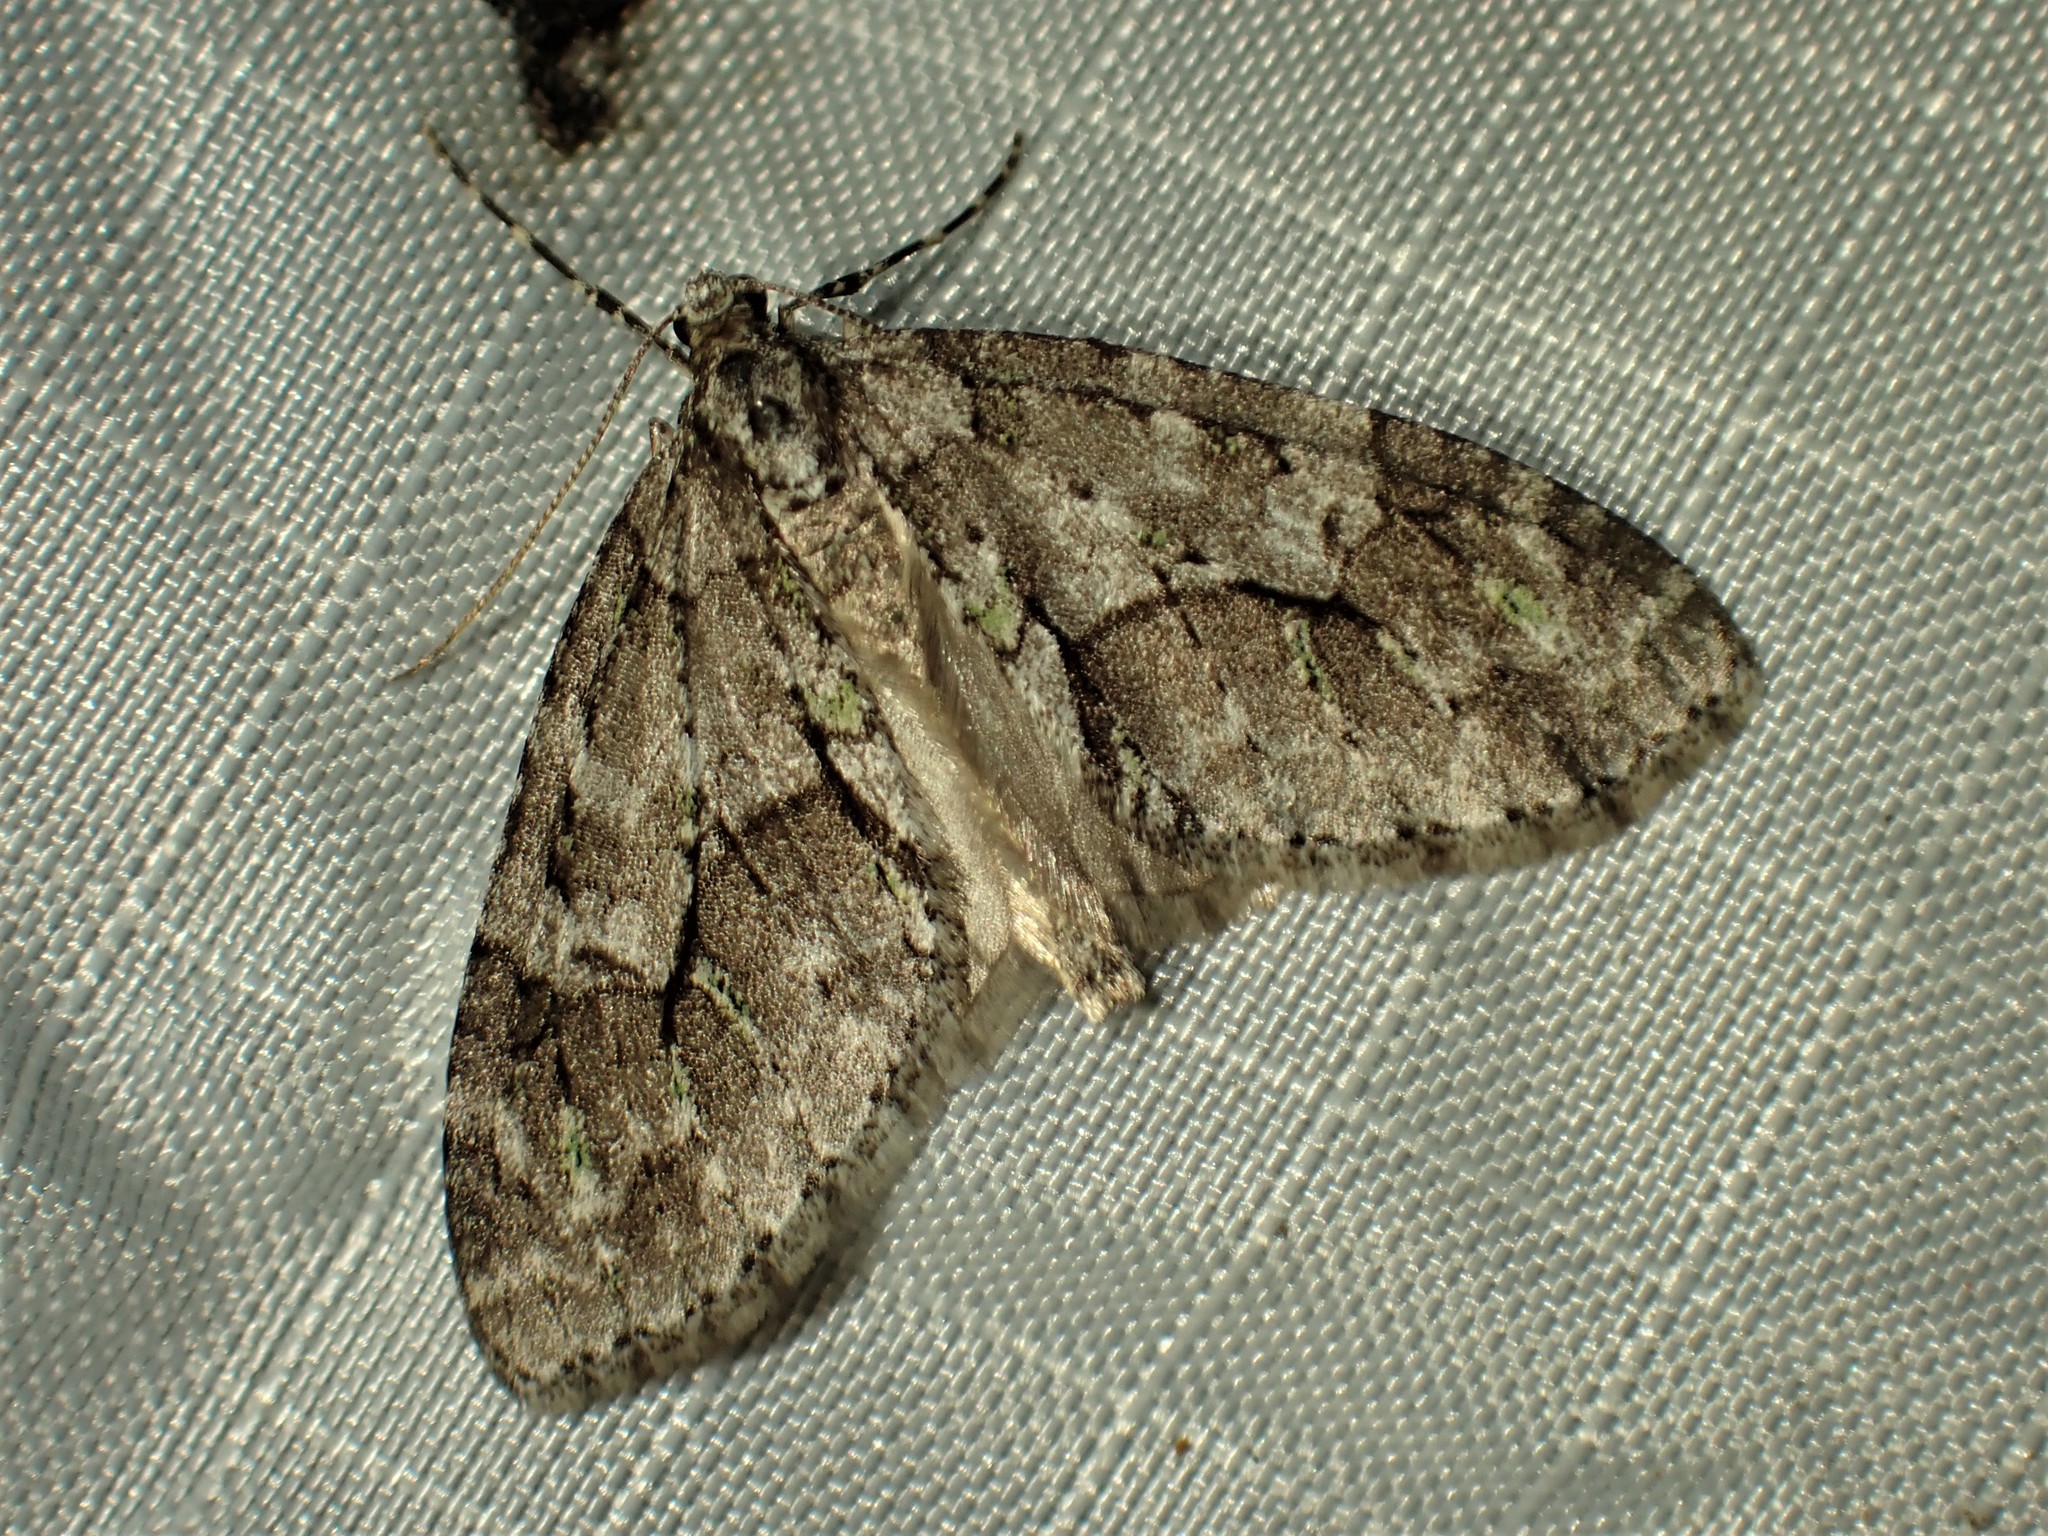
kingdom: Animalia
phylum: Arthropoda
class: Insecta
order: Lepidoptera
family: Geometridae
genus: Cladara
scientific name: Cladara limitaria
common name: Mottled gray carpet
